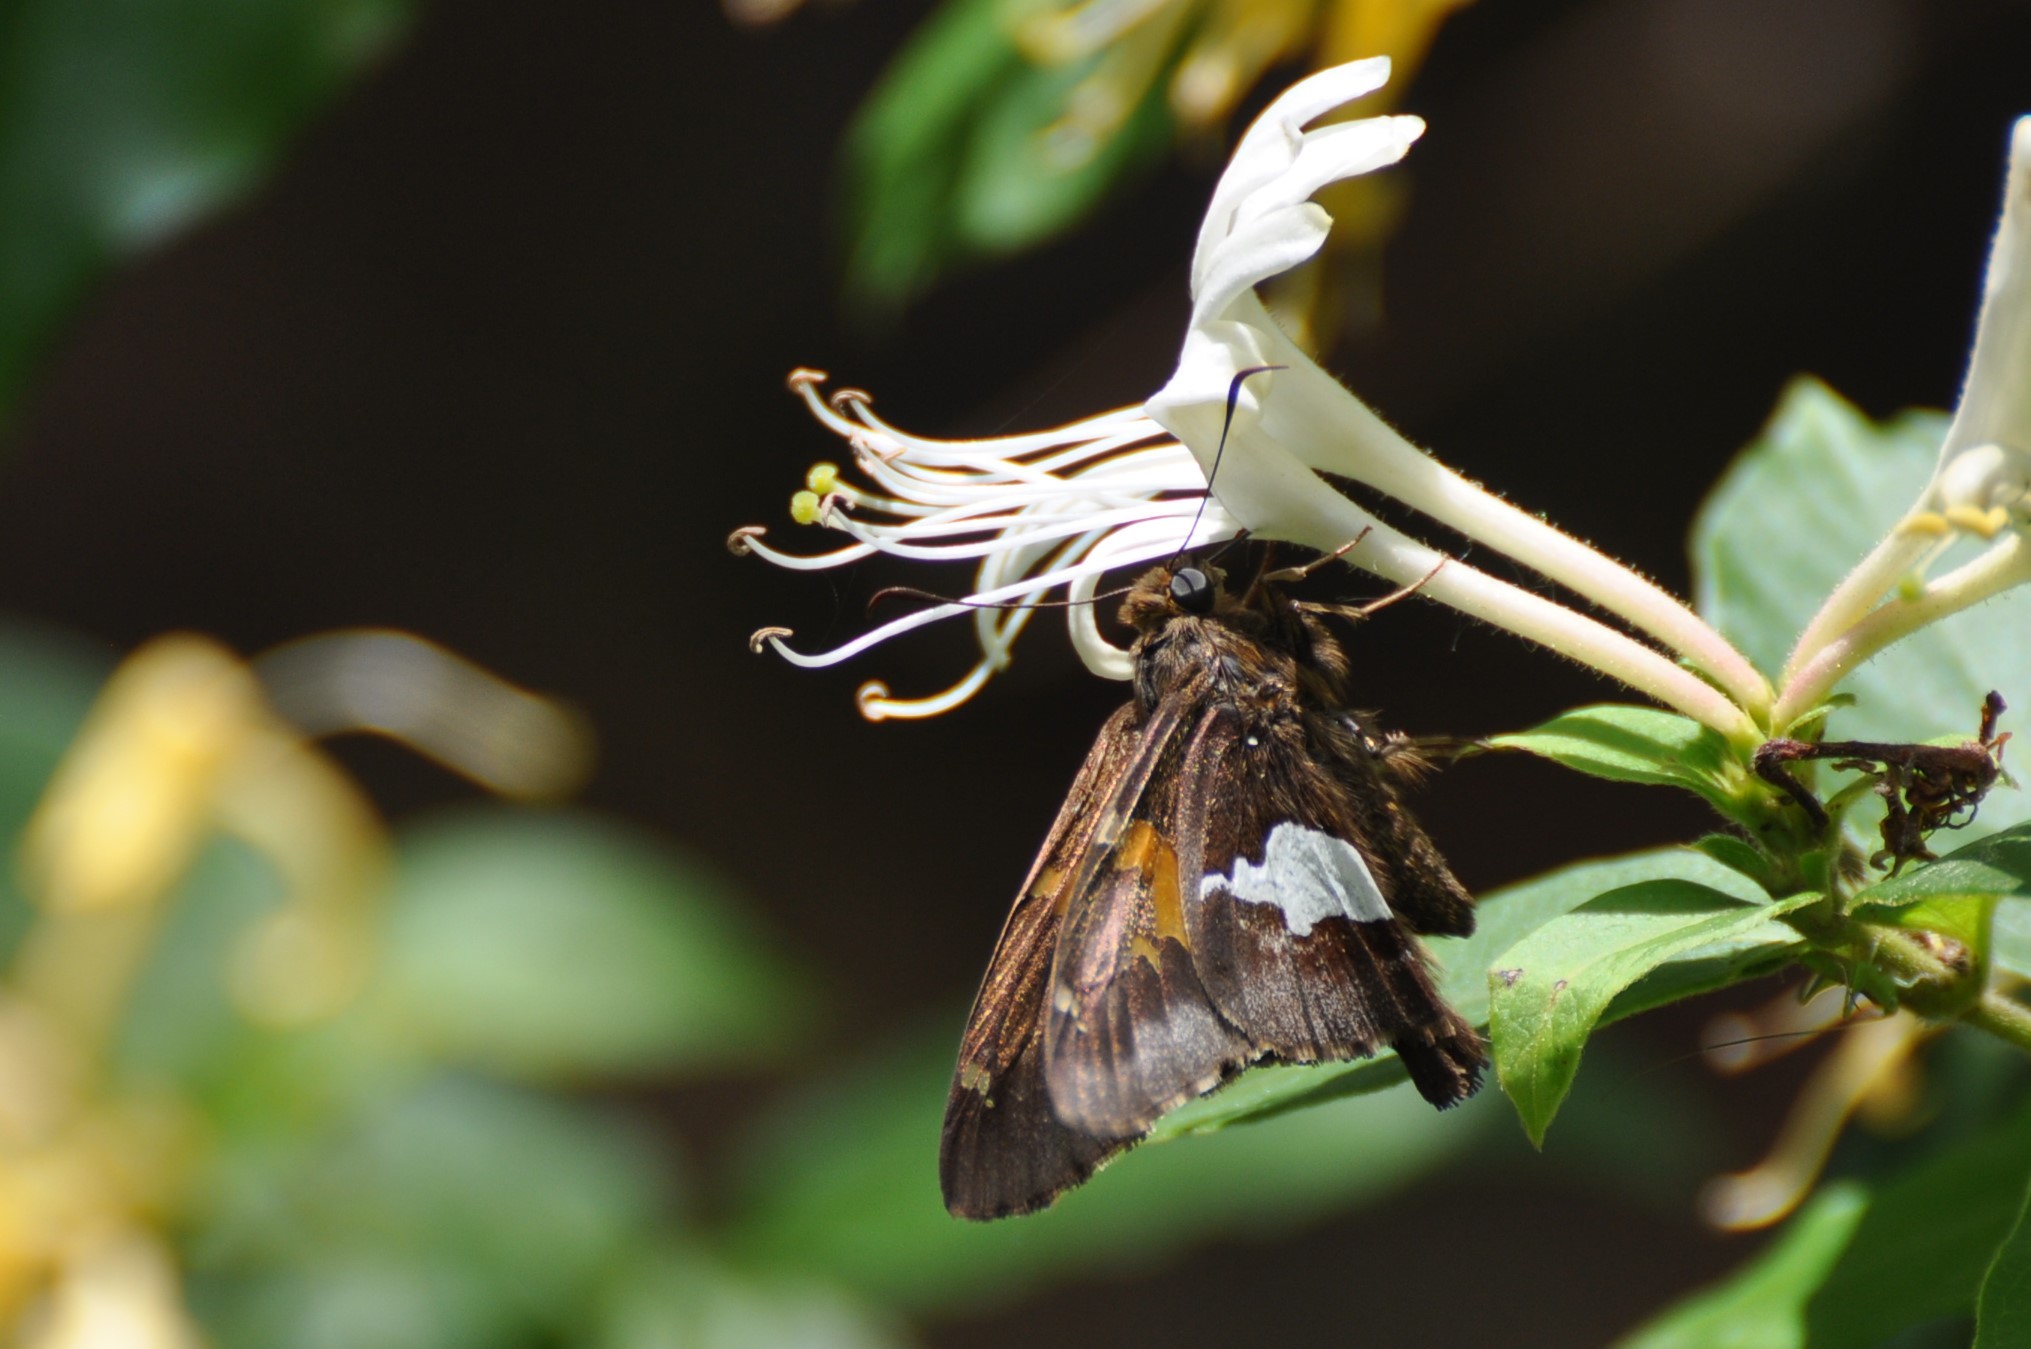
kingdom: Animalia
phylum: Arthropoda
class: Insecta
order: Lepidoptera
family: Hesperiidae
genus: Epargyreus
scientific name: Epargyreus clarus
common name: Silver-spotted skipper
